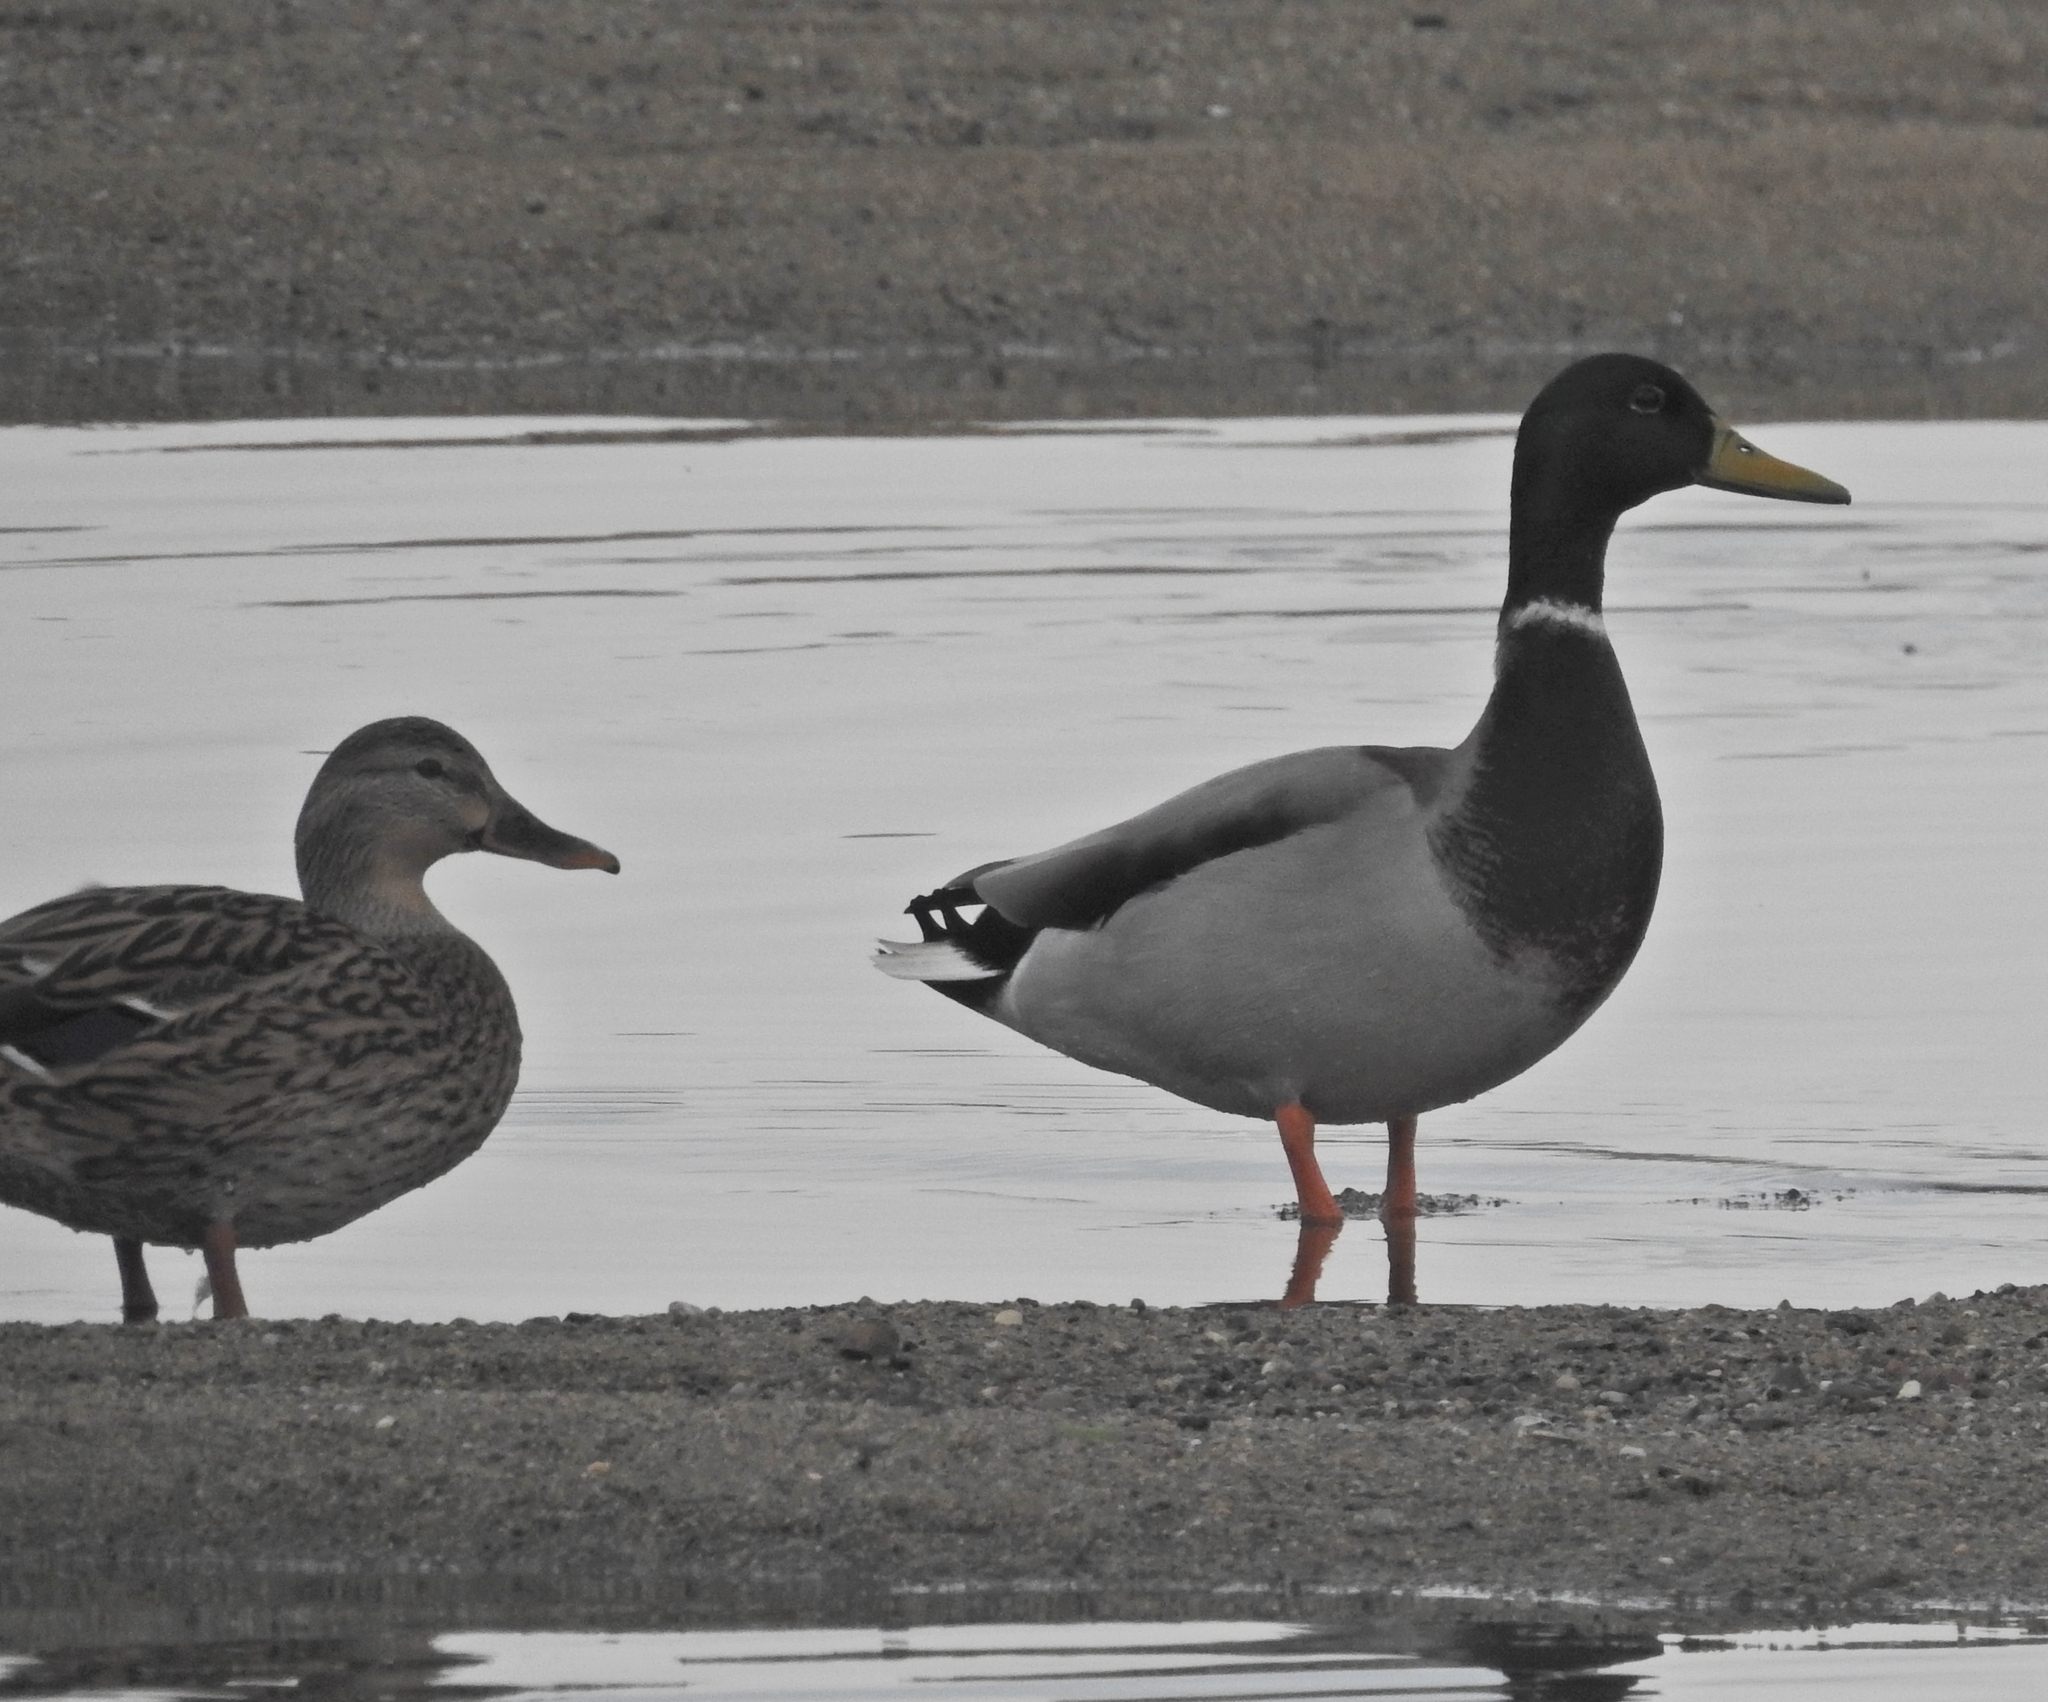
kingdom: Animalia
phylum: Chordata
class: Aves
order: Anseriformes
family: Anatidae
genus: Anas
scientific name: Anas platyrhynchos
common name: Mallard
